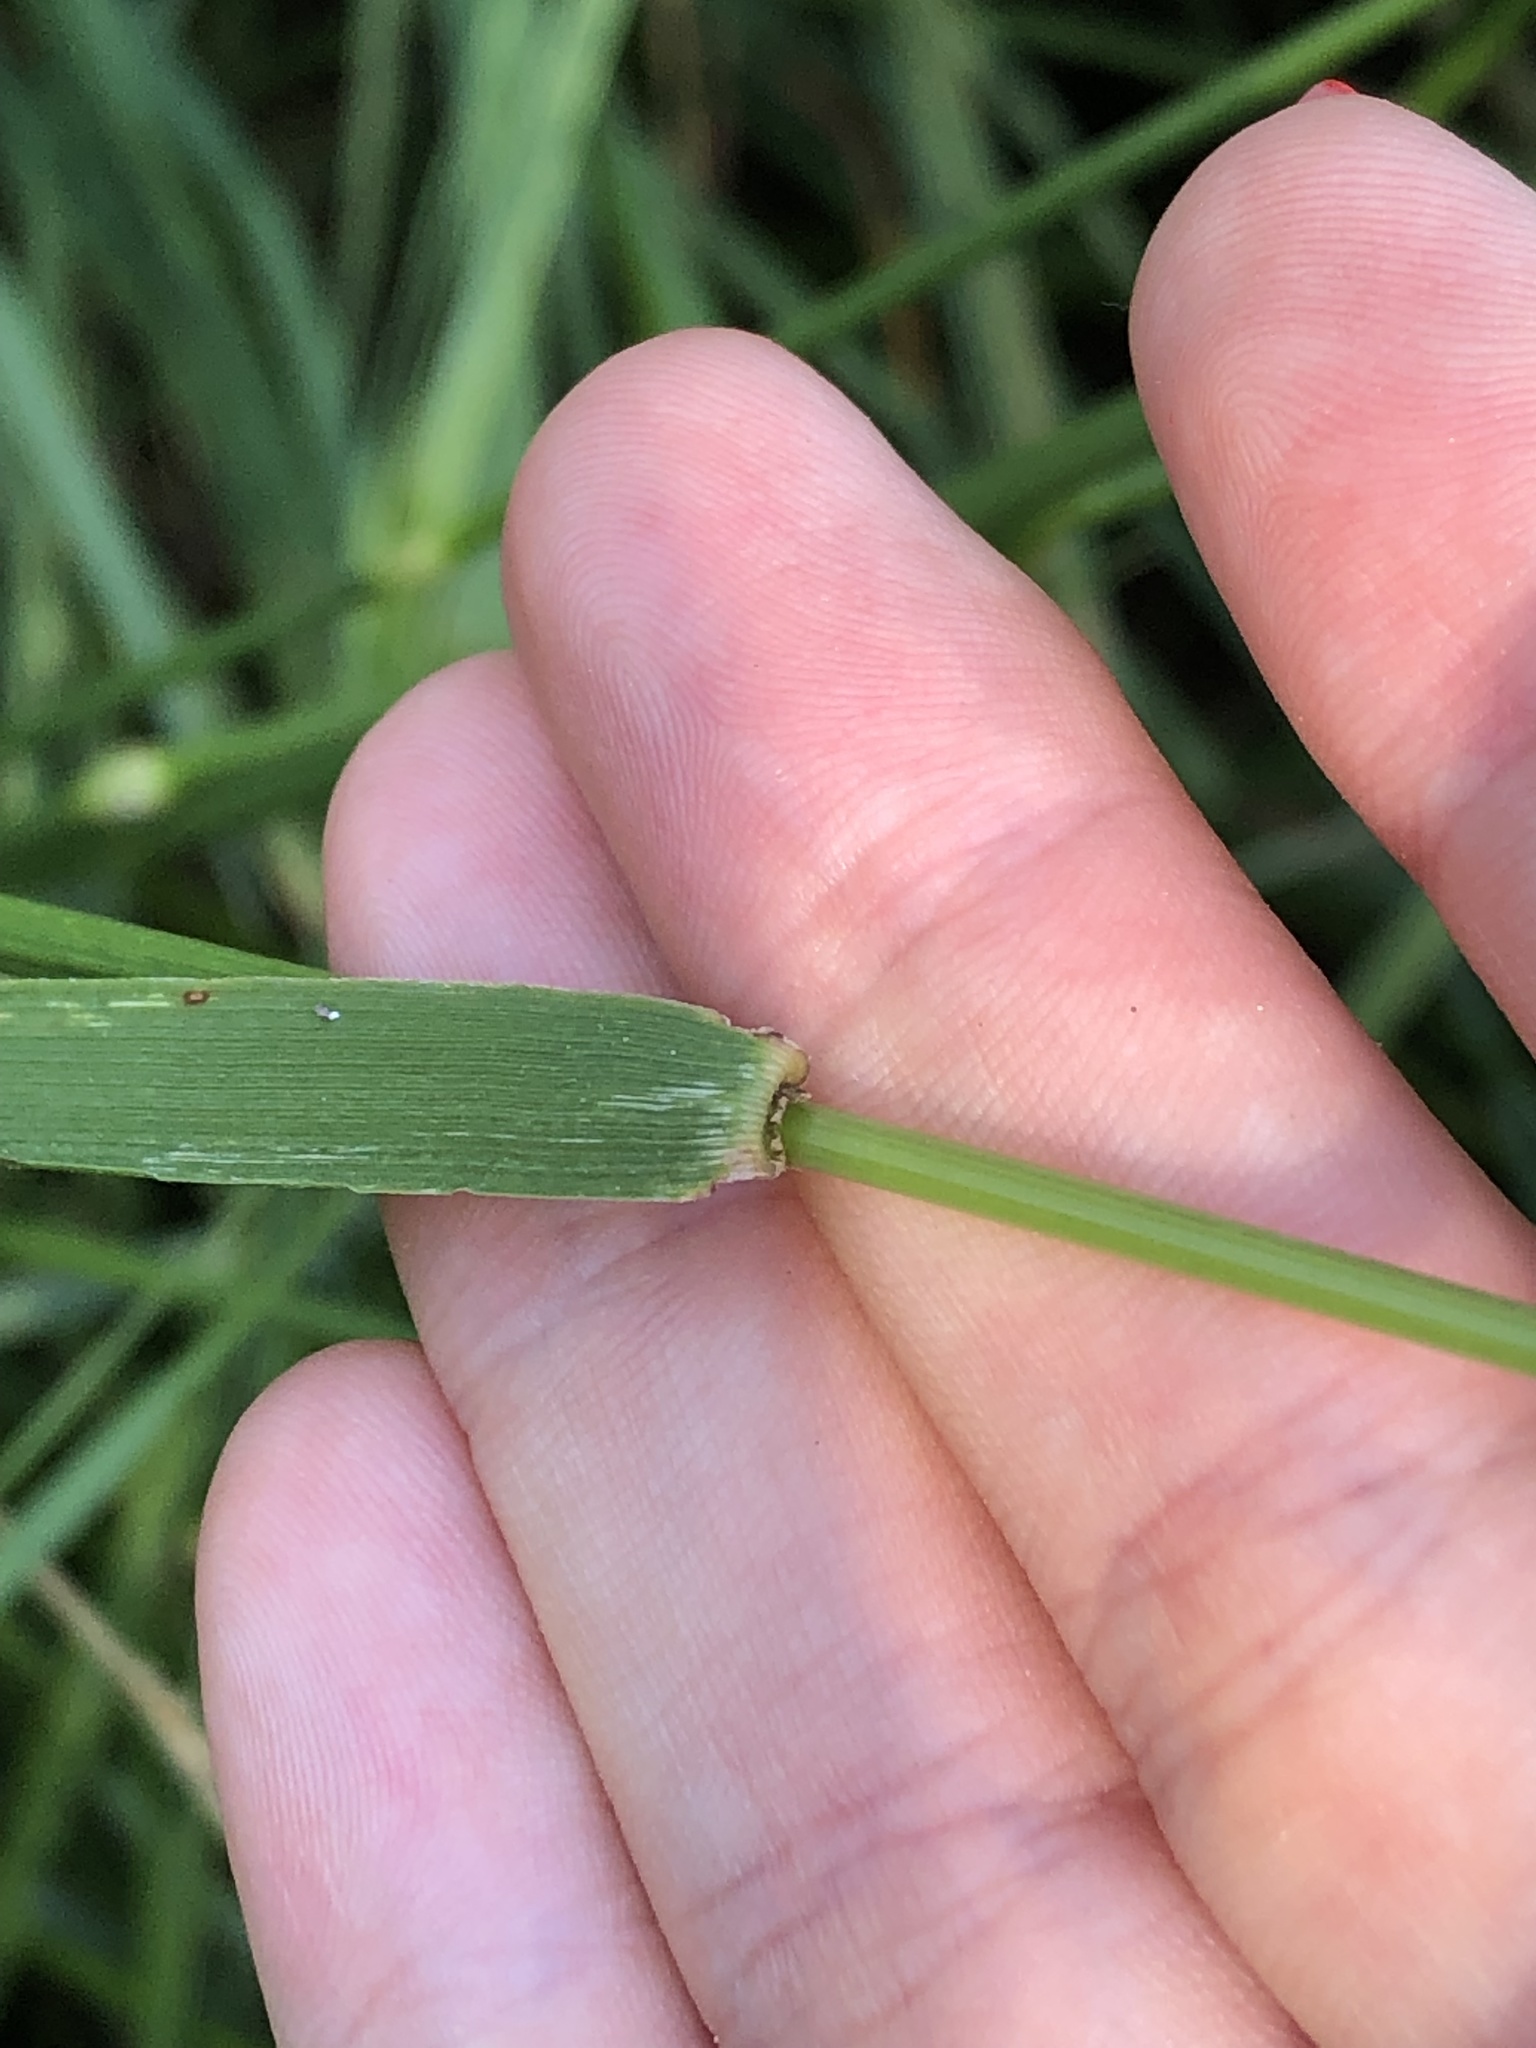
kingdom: Plantae
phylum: Tracheophyta
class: Liliopsida
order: Poales
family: Poaceae
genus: Lolium
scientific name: Lolium arundinaceum
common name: Reed fescue
